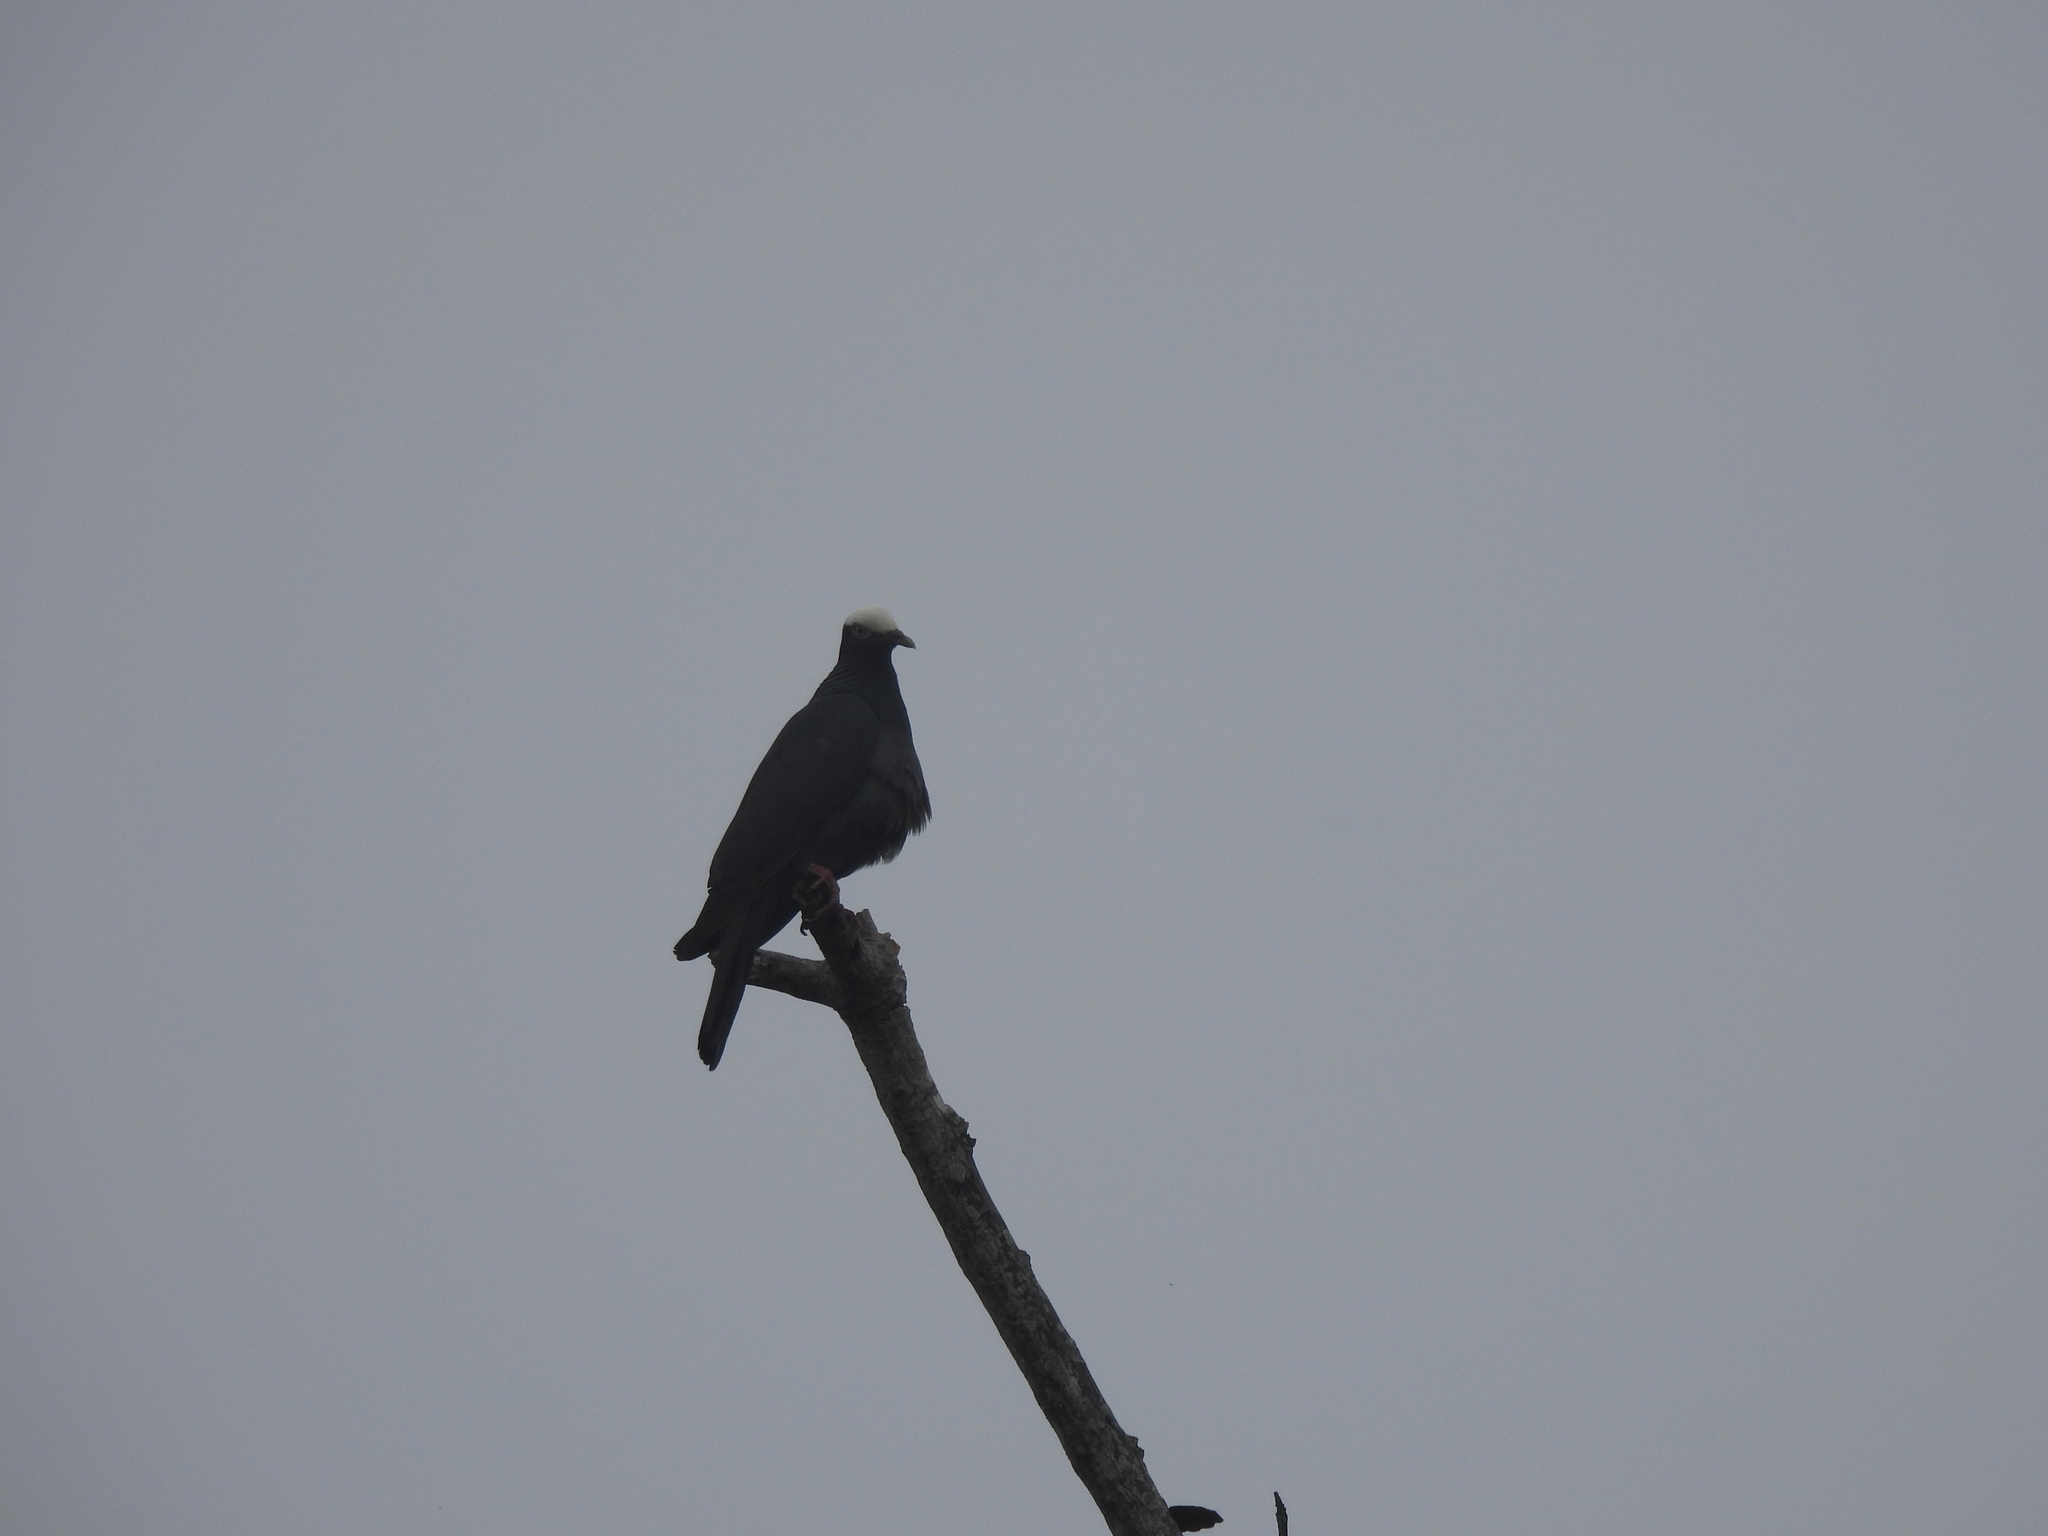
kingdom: Animalia
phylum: Chordata
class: Aves
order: Columbiformes
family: Columbidae
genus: Patagioenas
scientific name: Patagioenas leucocephala
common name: White-crowned pigeon
